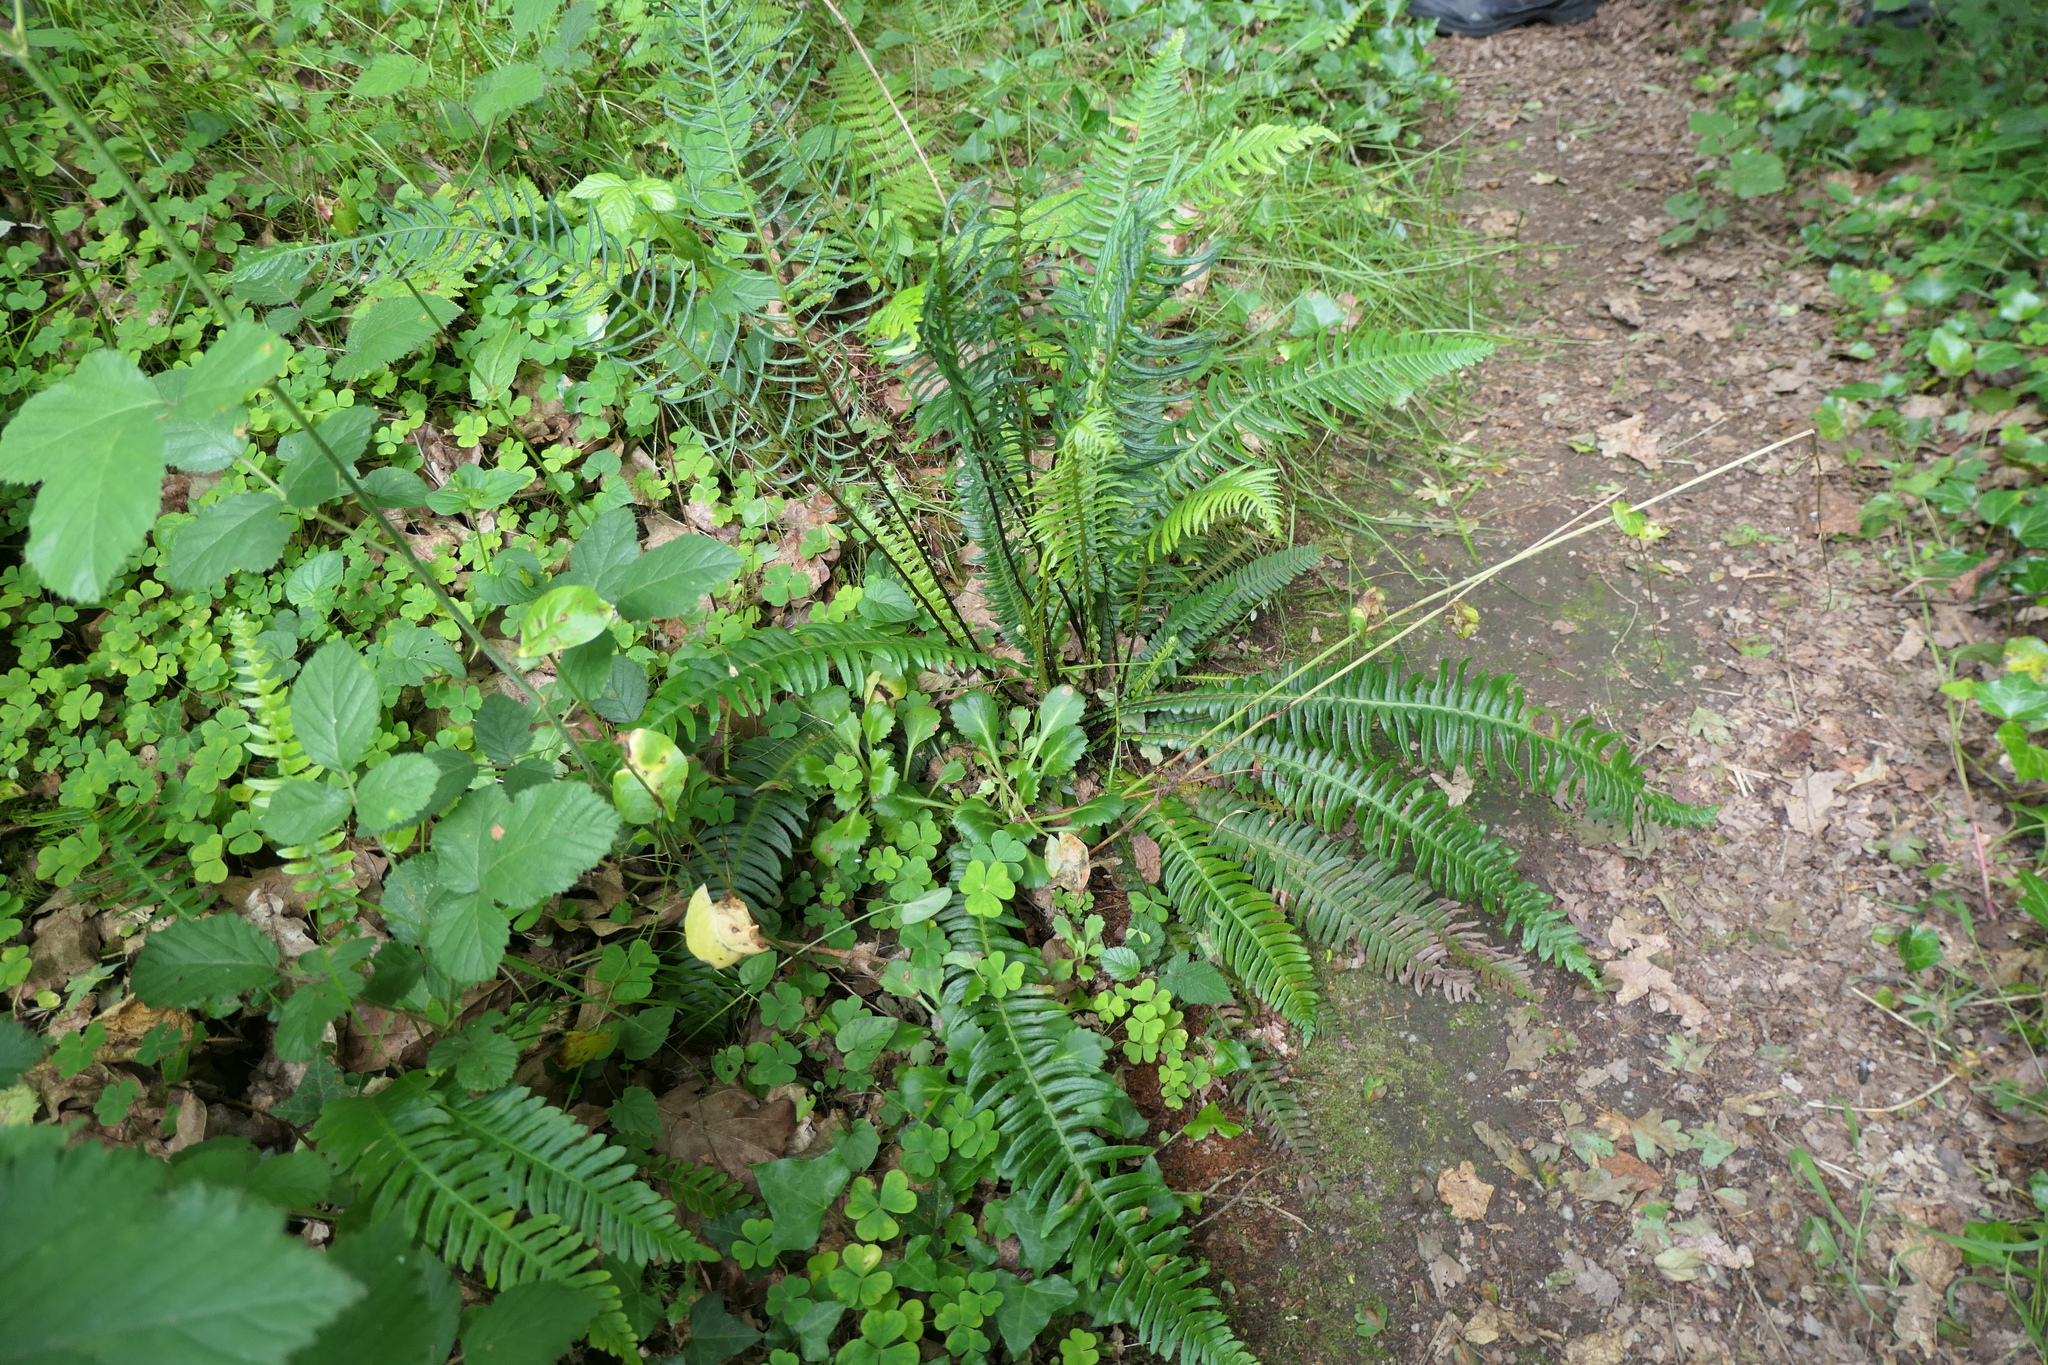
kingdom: Plantae
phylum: Tracheophyta
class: Polypodiopsida
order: Polypodiales
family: Blechnaceae
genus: Struthiopteris
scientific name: Struthiopteris spicant
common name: Deer fern
